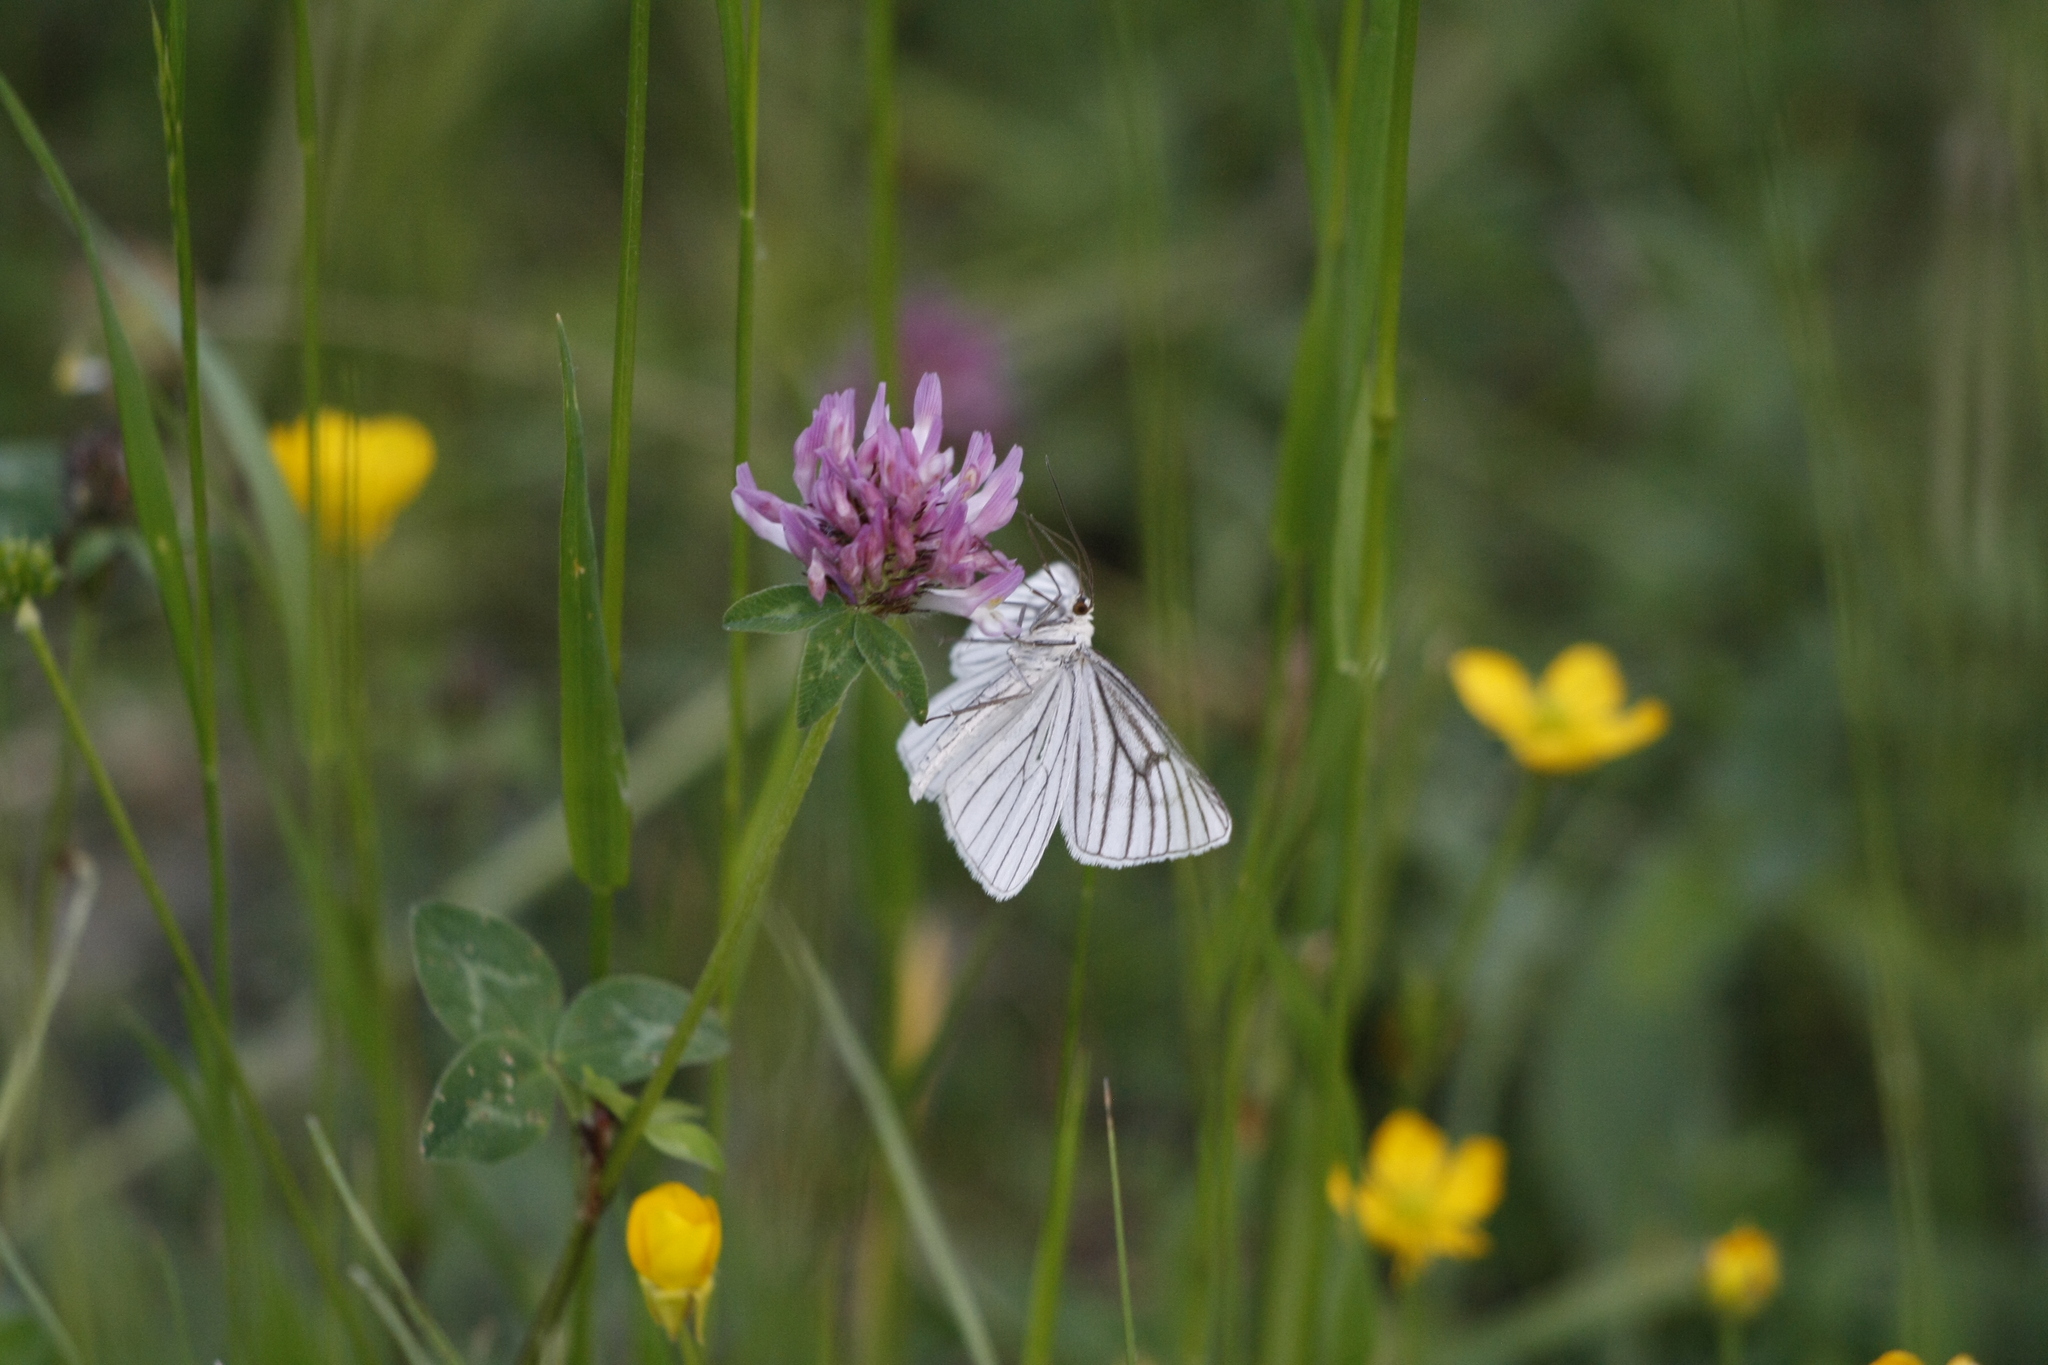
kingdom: Animalia
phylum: Arthropoda
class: Insecta
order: Lepidoptera
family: Geometridae
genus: Siona
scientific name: Siona lineata
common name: Black-veined moth
